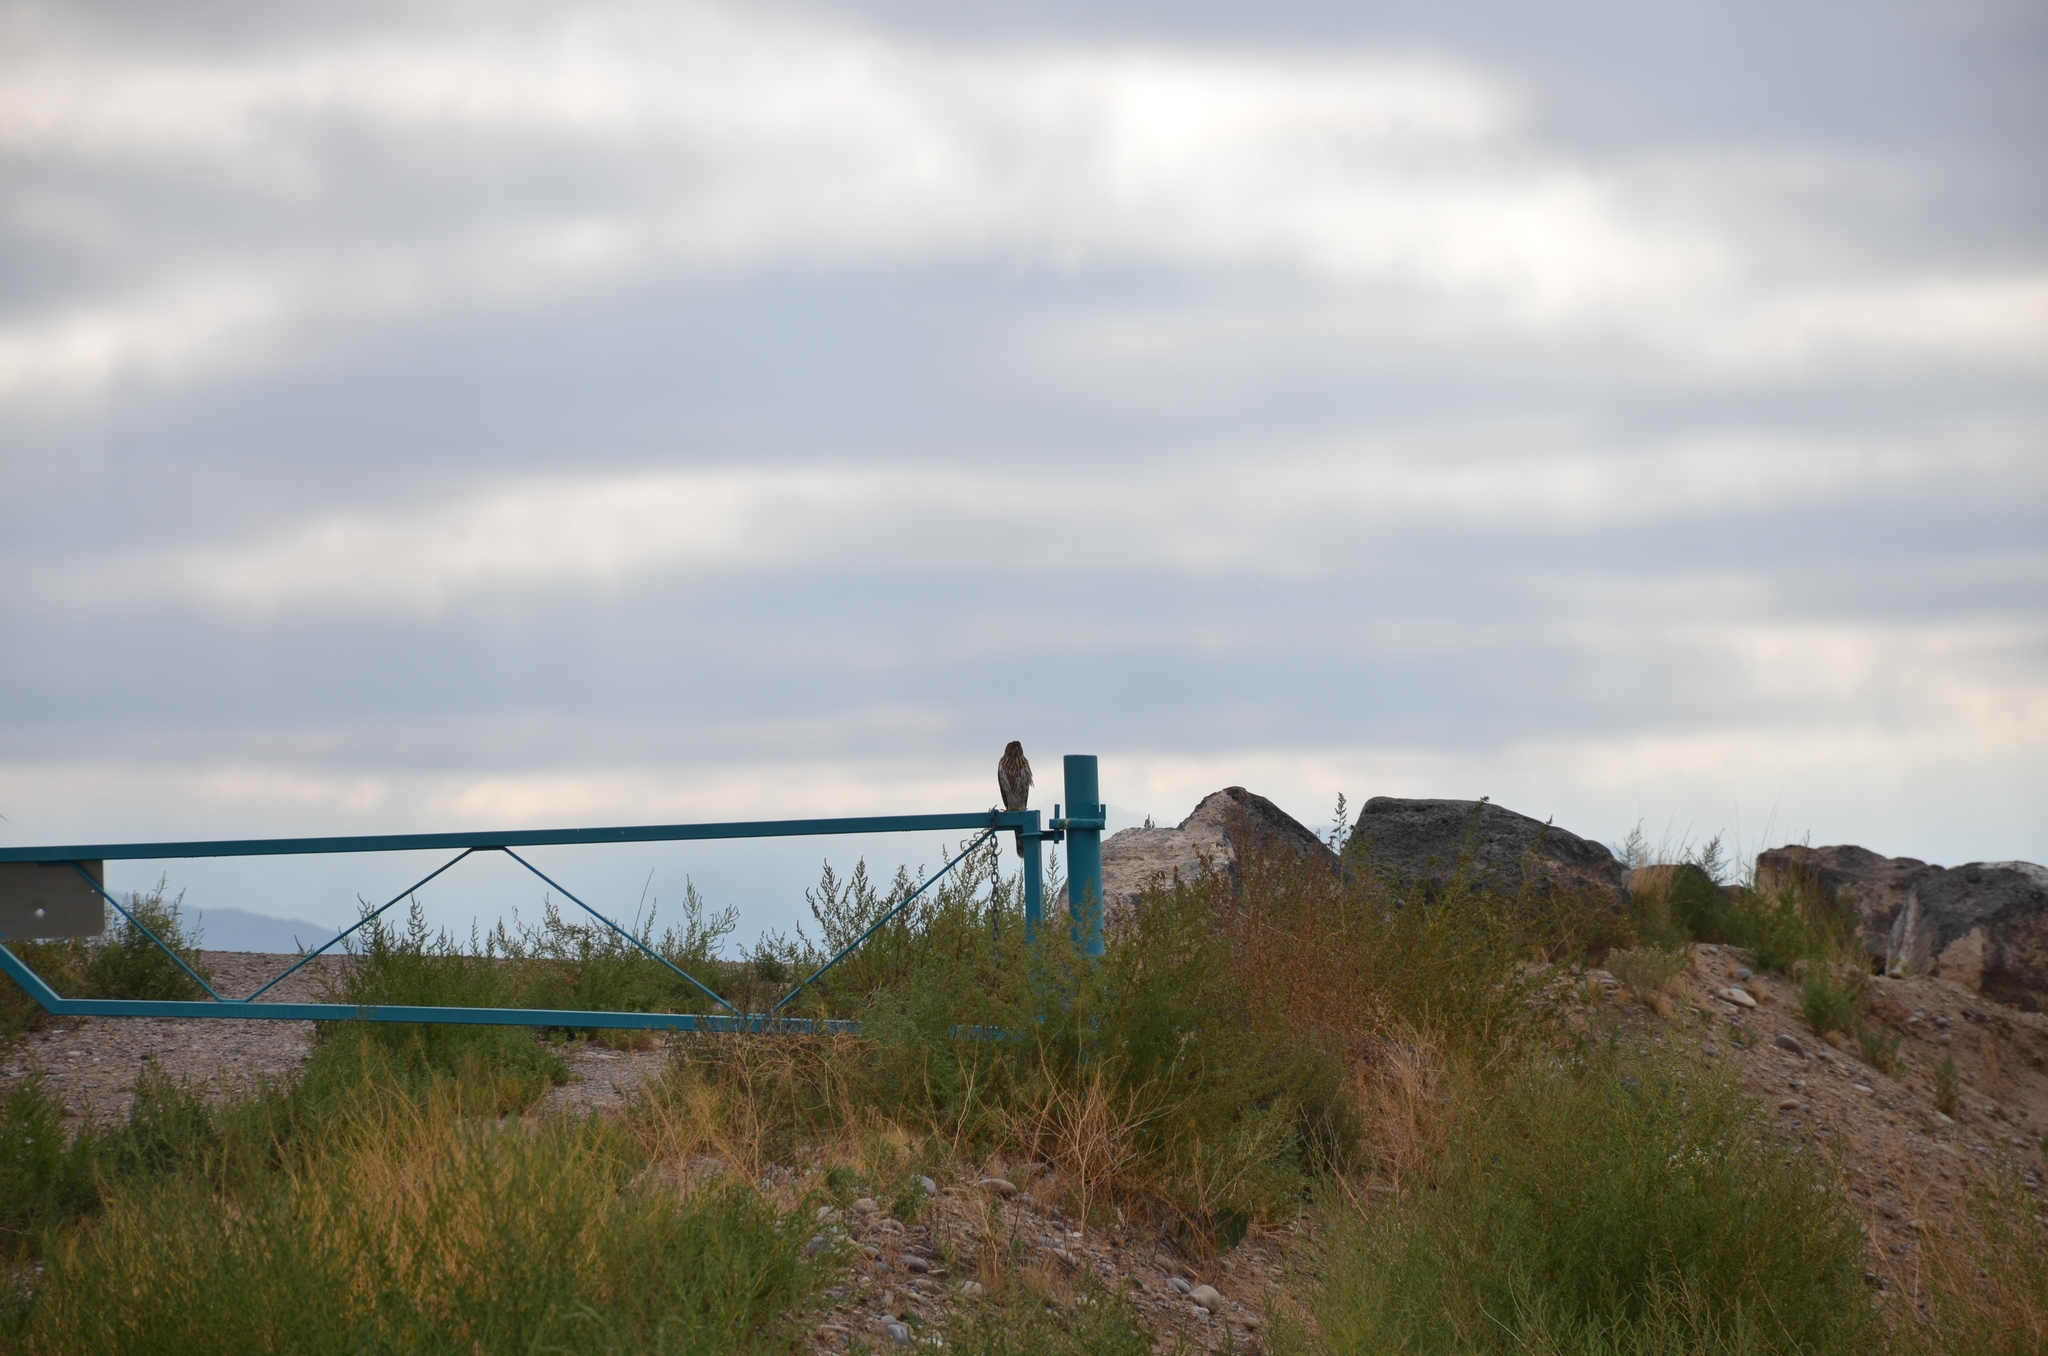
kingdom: Animalia
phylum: Chordata
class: Aves
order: Accipitriformes
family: Accipitridae
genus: Accipiter
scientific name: Accipiter cooperii
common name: Cooper's hawk
